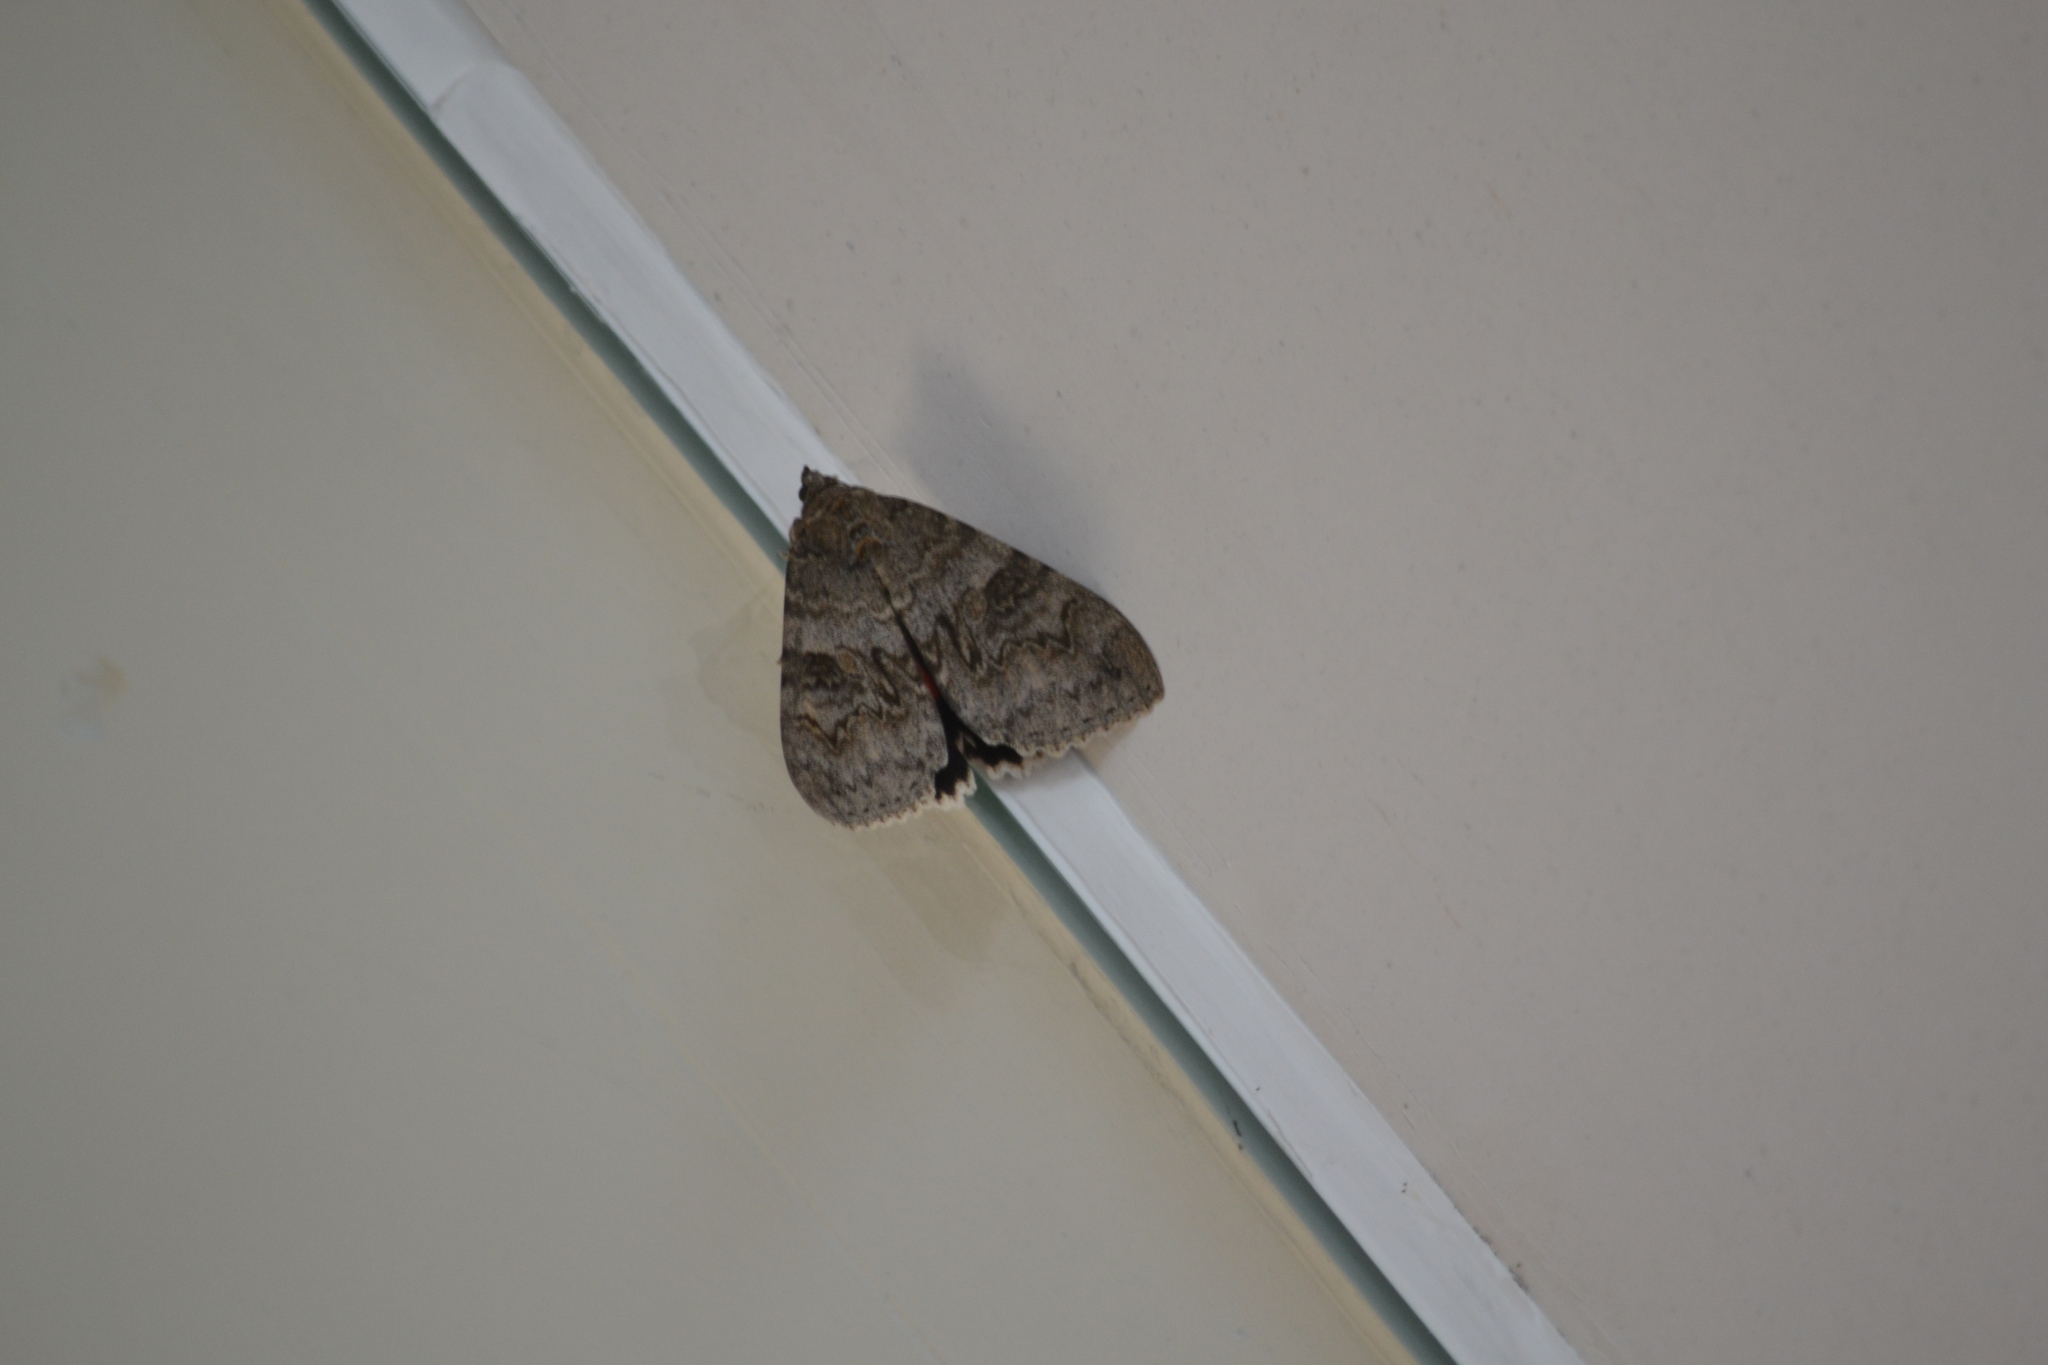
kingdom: Animalia
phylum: Arthropoda
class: Insecta
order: Lepidoptera
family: Erebidae
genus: Catocala
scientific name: Catocala nupta
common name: Red underwing
